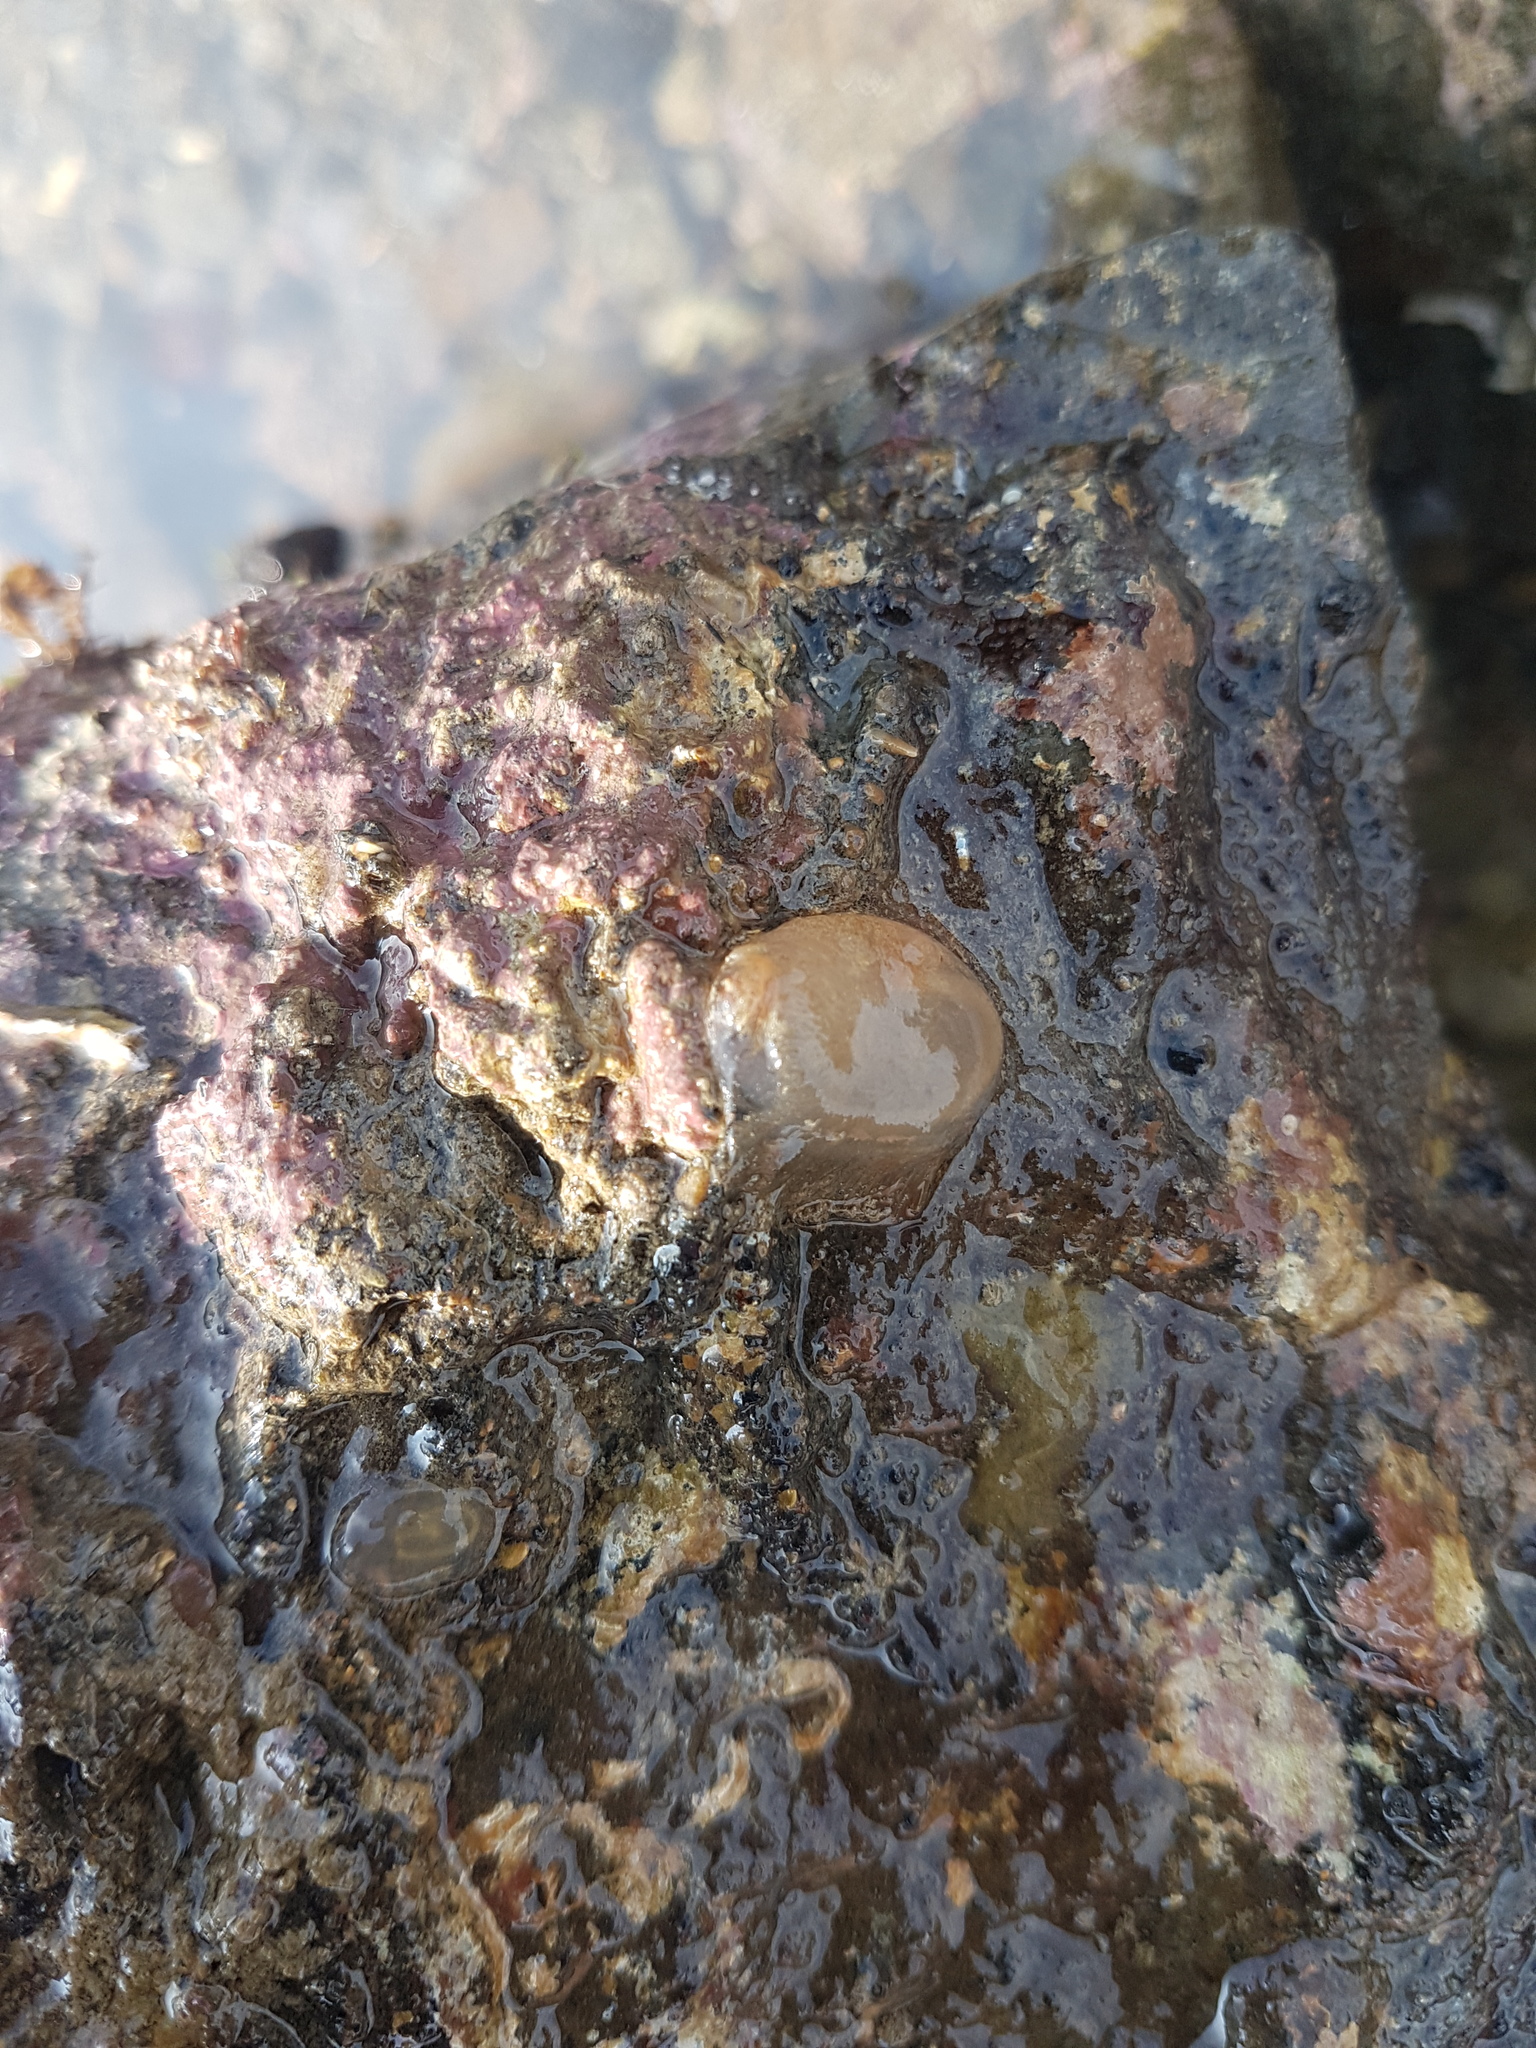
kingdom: Animalia
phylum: Chordata
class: Ascidiacea
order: Phlebobranchia
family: Agneziidae
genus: Agnezia
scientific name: Agnezia glaciata
